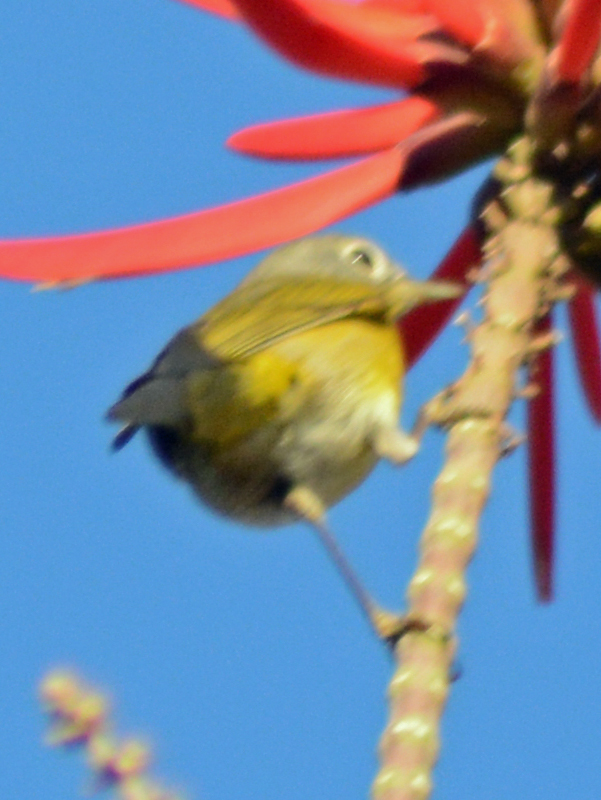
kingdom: Animalia
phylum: Chordata
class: Aves
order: Passeriformes
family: Parulidae
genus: Leiothlypis
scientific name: Leiothlypis ruficapilla
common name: Nashville warbler
